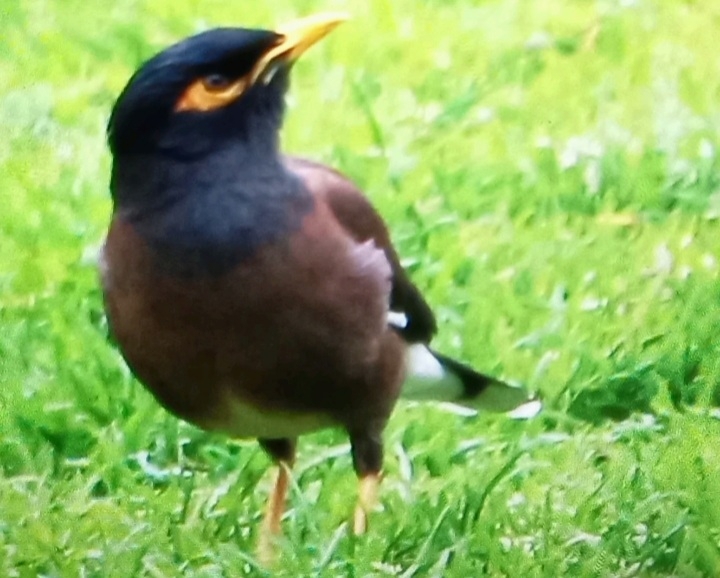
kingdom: Animalia
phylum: Chordata
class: Aves
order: Passeriformes
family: Sturnidae
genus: Acridotheres
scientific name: Acridotheres tristis
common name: Common myna
